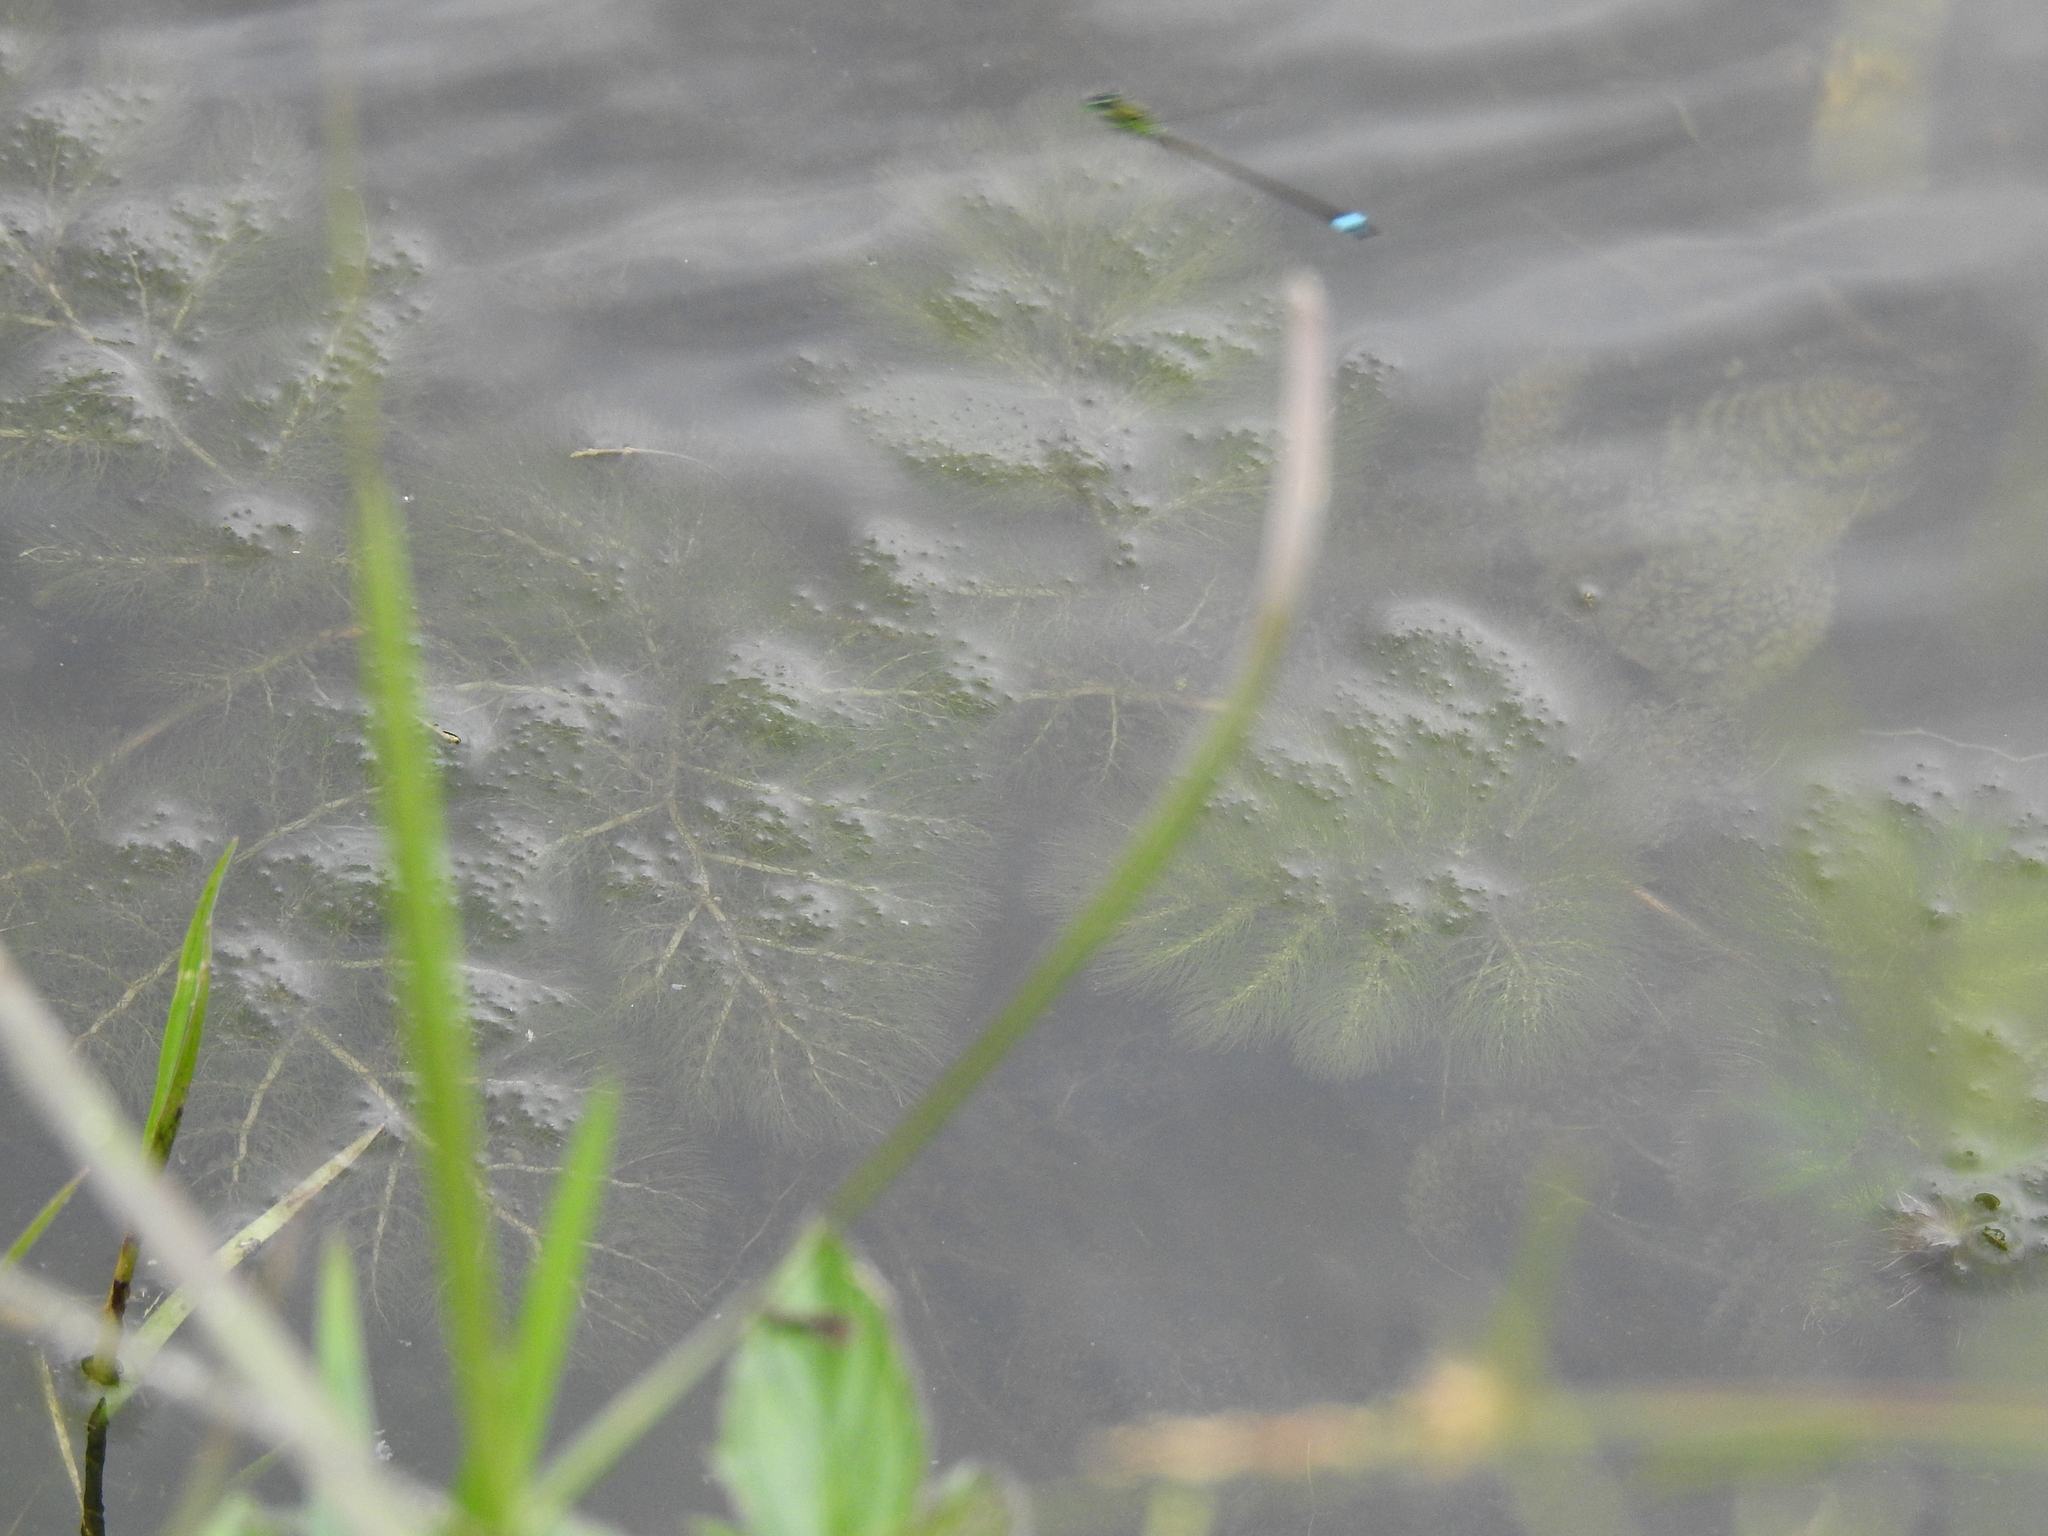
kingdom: Plantae
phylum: Tracheophyta
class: Magnoliopsida
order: Lamiales
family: Lentibulariaceae
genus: Utricularia
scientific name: Utricularia foliosa
